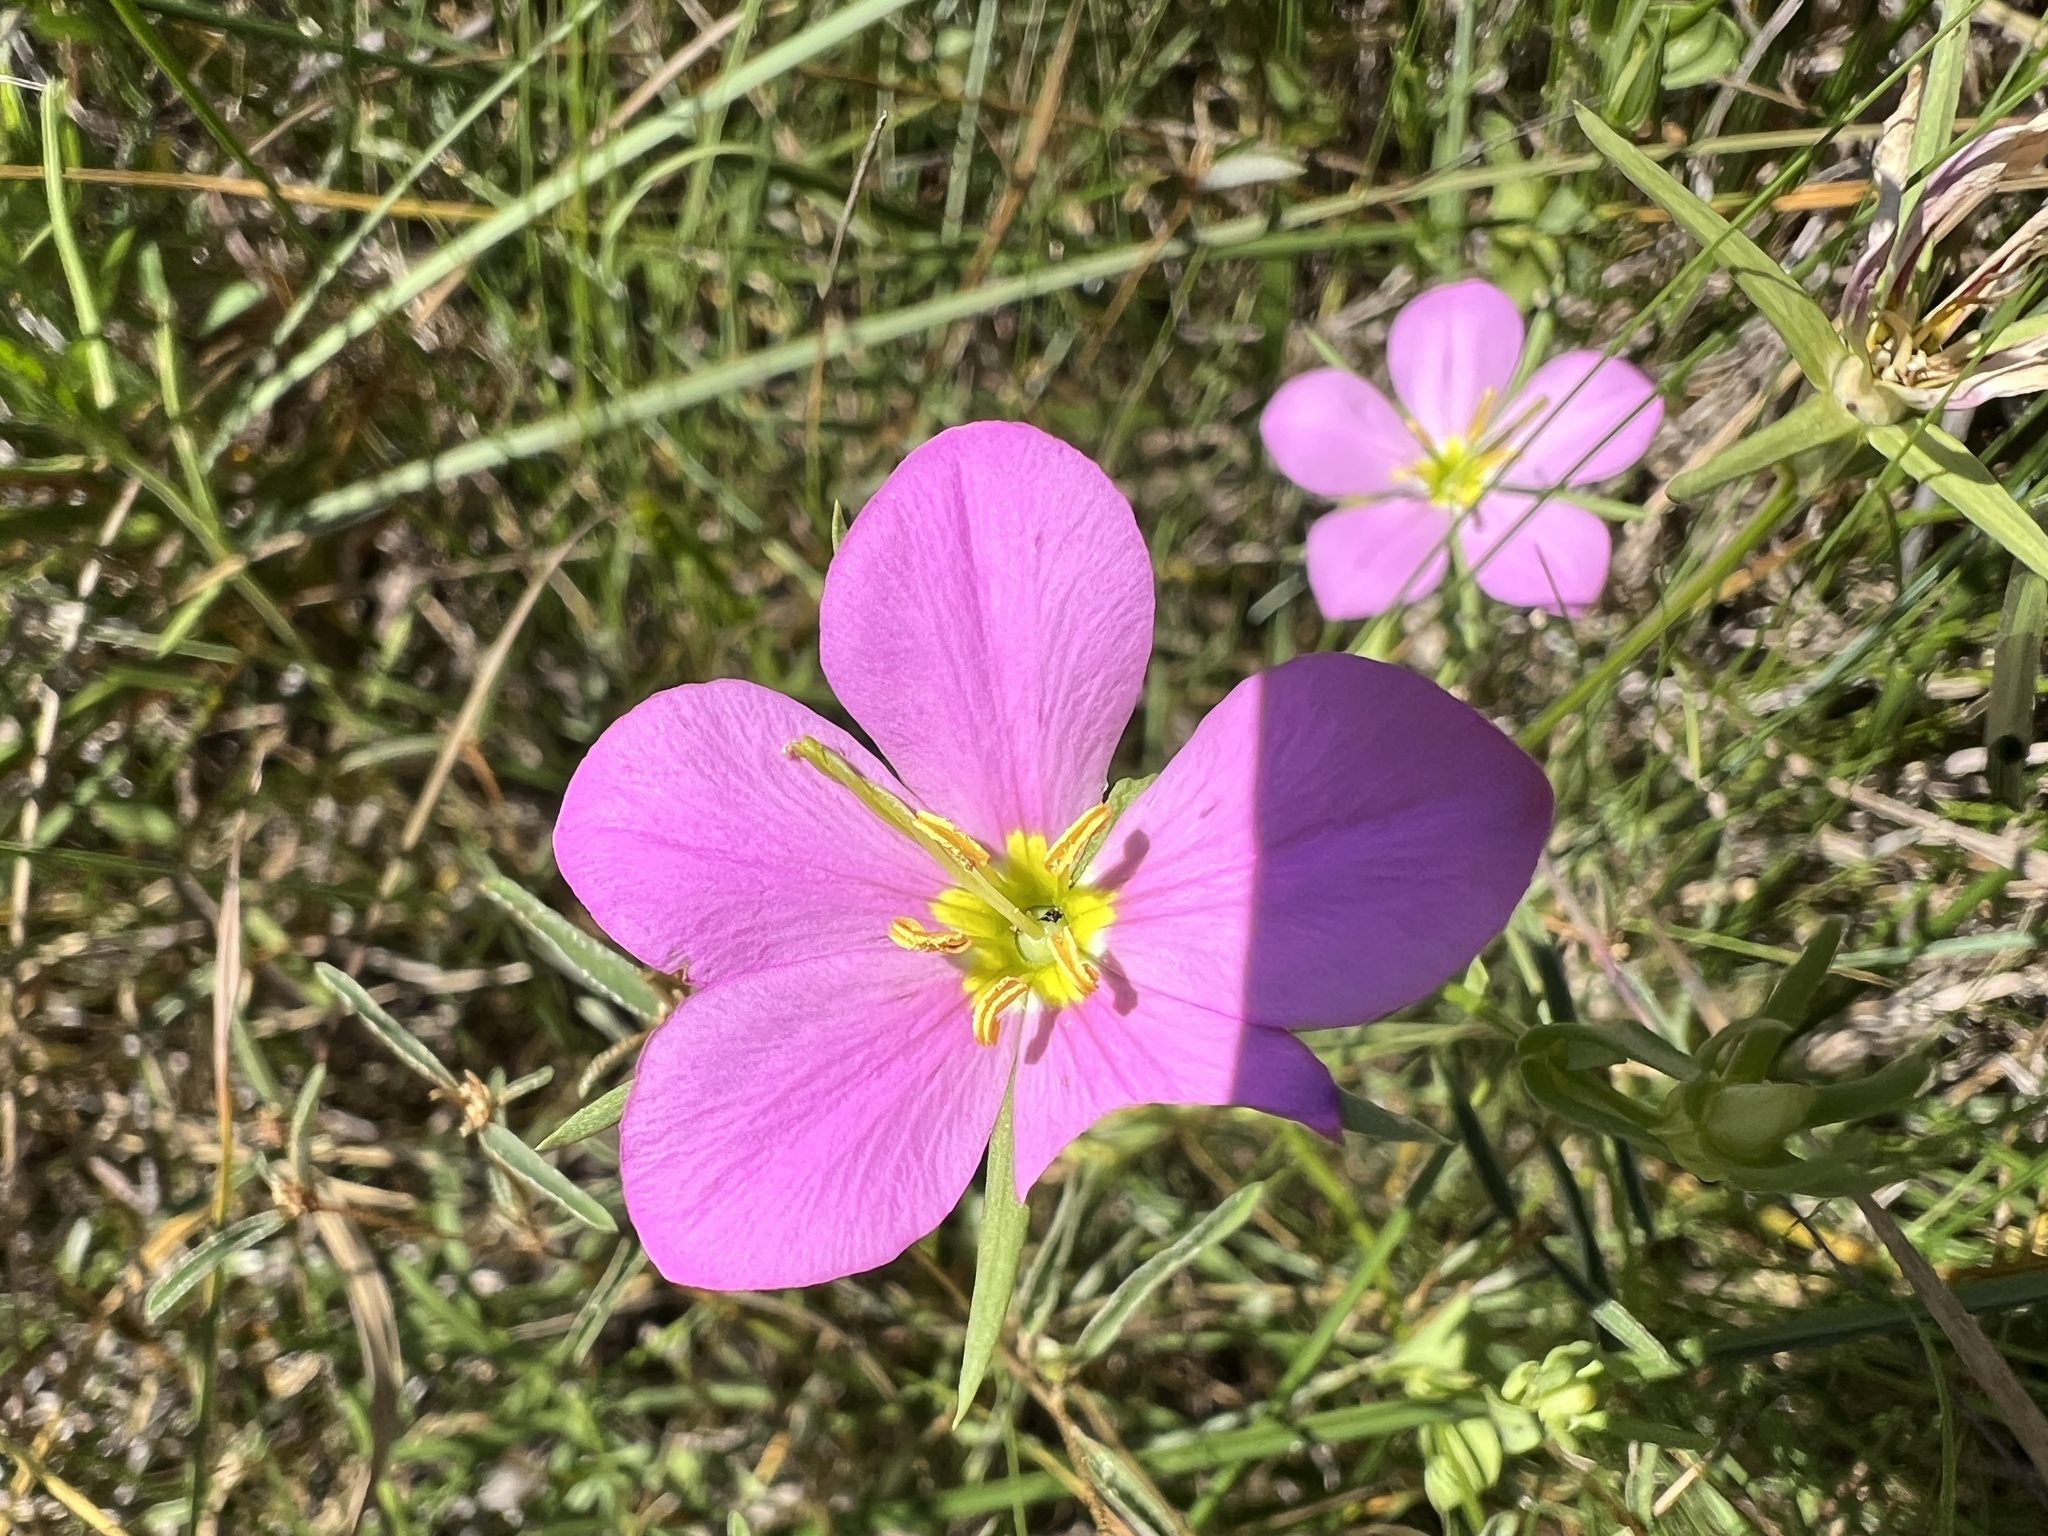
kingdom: Plantae
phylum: Tracheophyta
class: Magnoliopsida
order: Gentianales
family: Gentianaceae
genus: Sabatia
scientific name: Sabatia campestris
